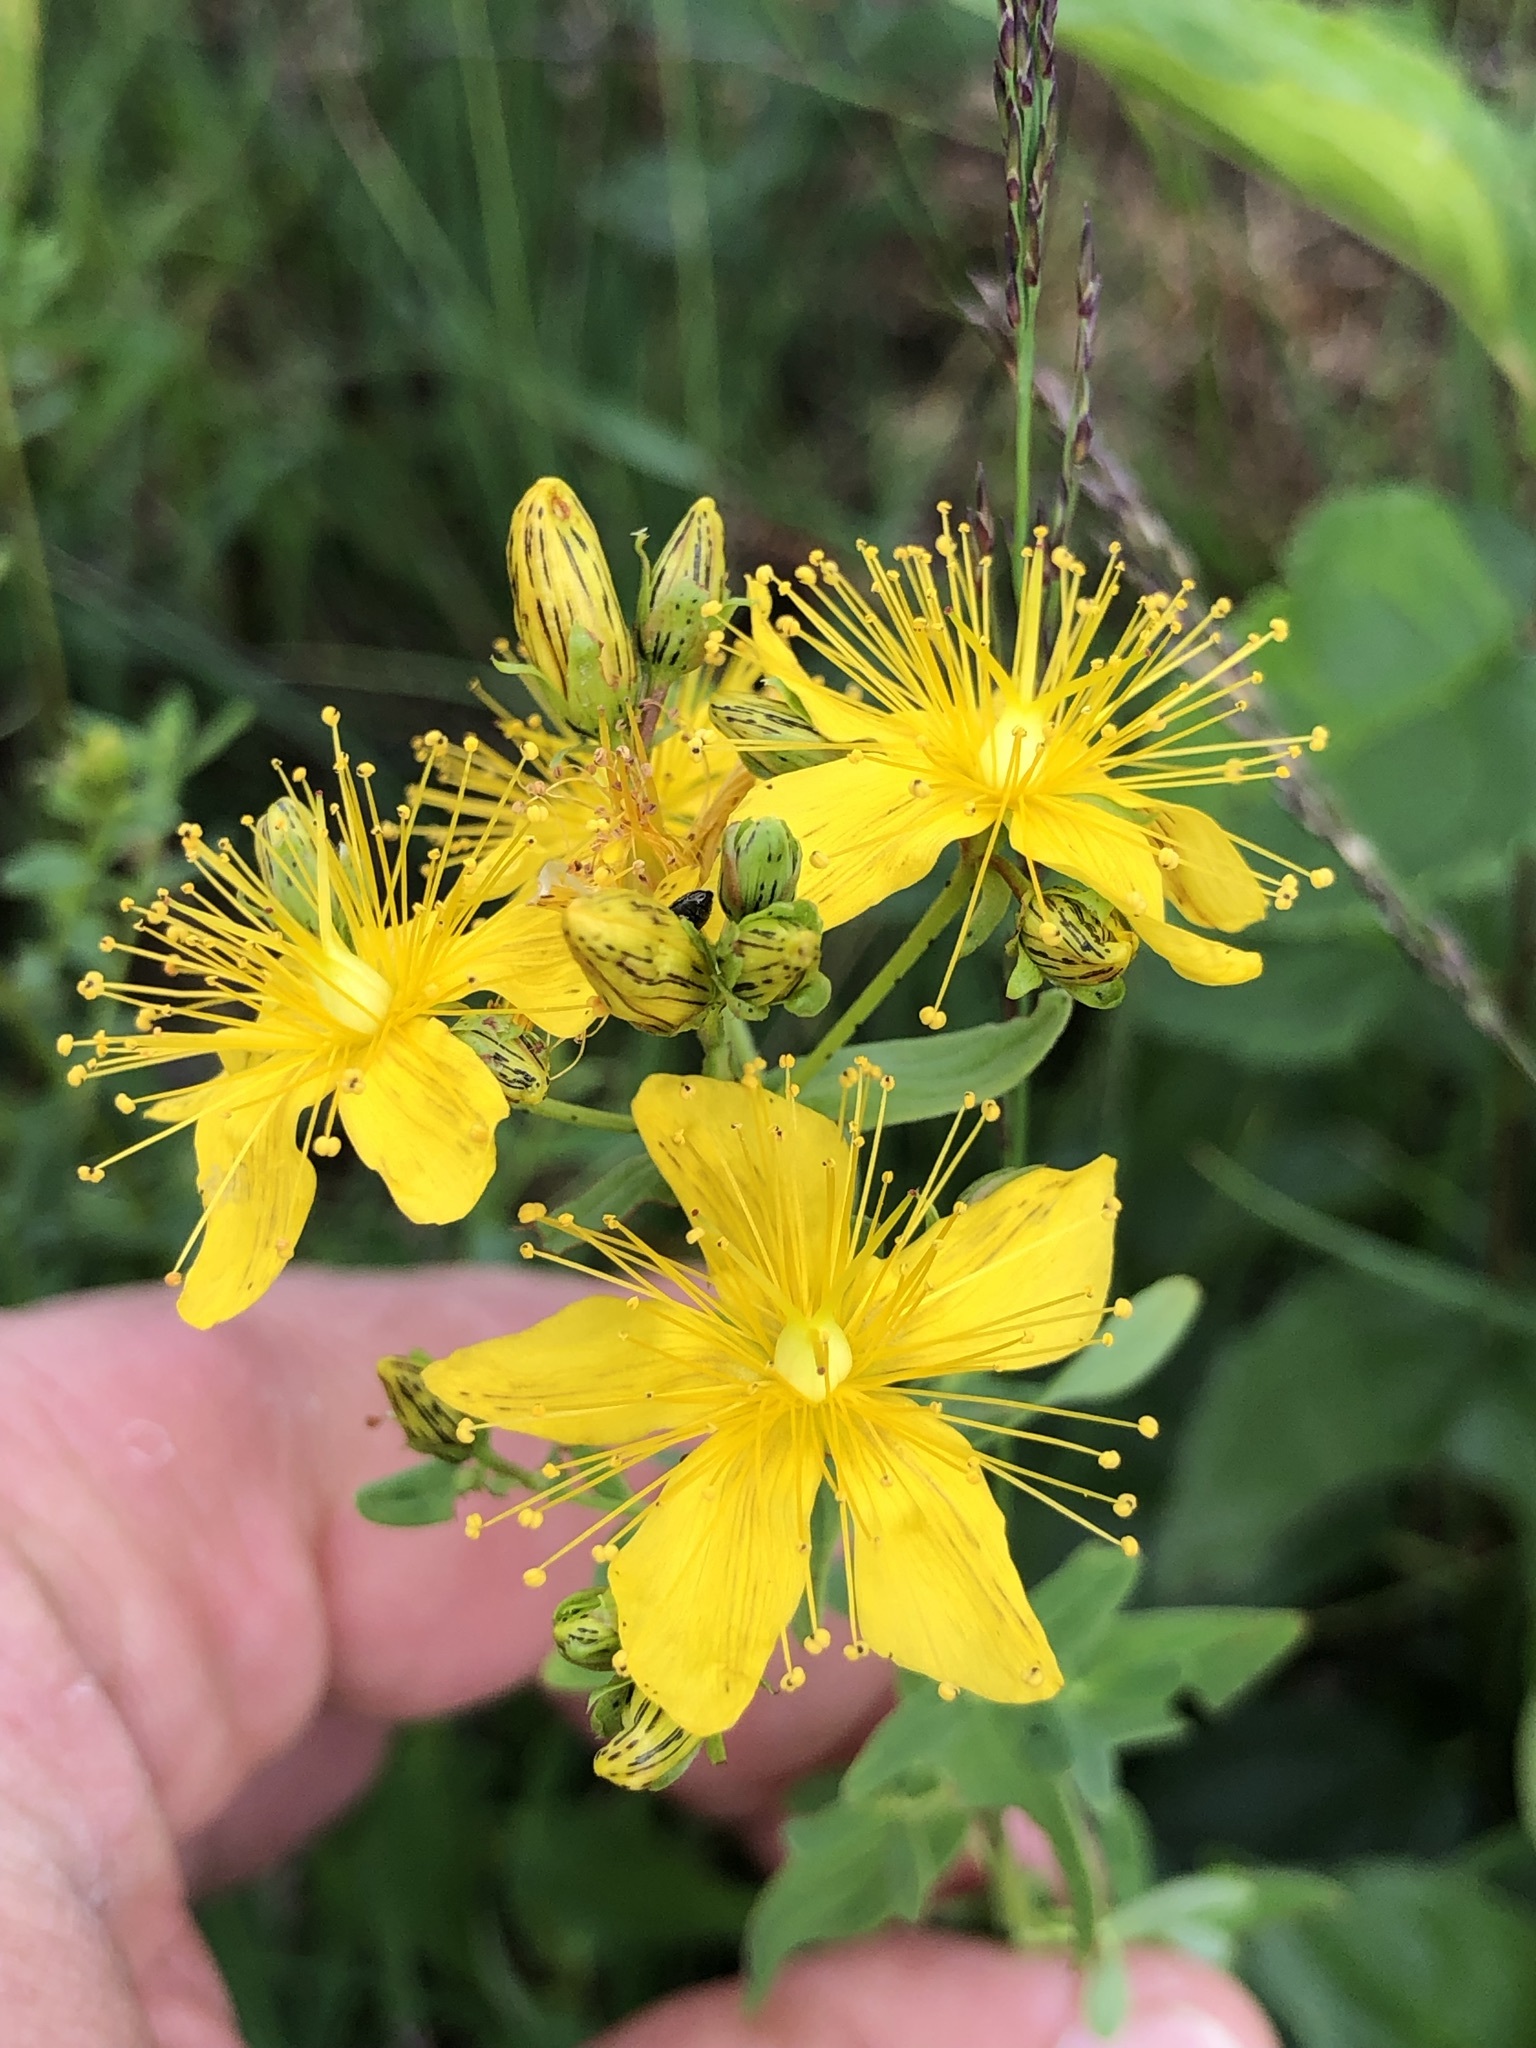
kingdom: Plantae
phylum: Tracheophyta
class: Magnoliopsida
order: Malpighiales
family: Hypericaceae
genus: Hypericum
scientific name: Hypericum maculatum
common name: Imperforate st. john's-wort
